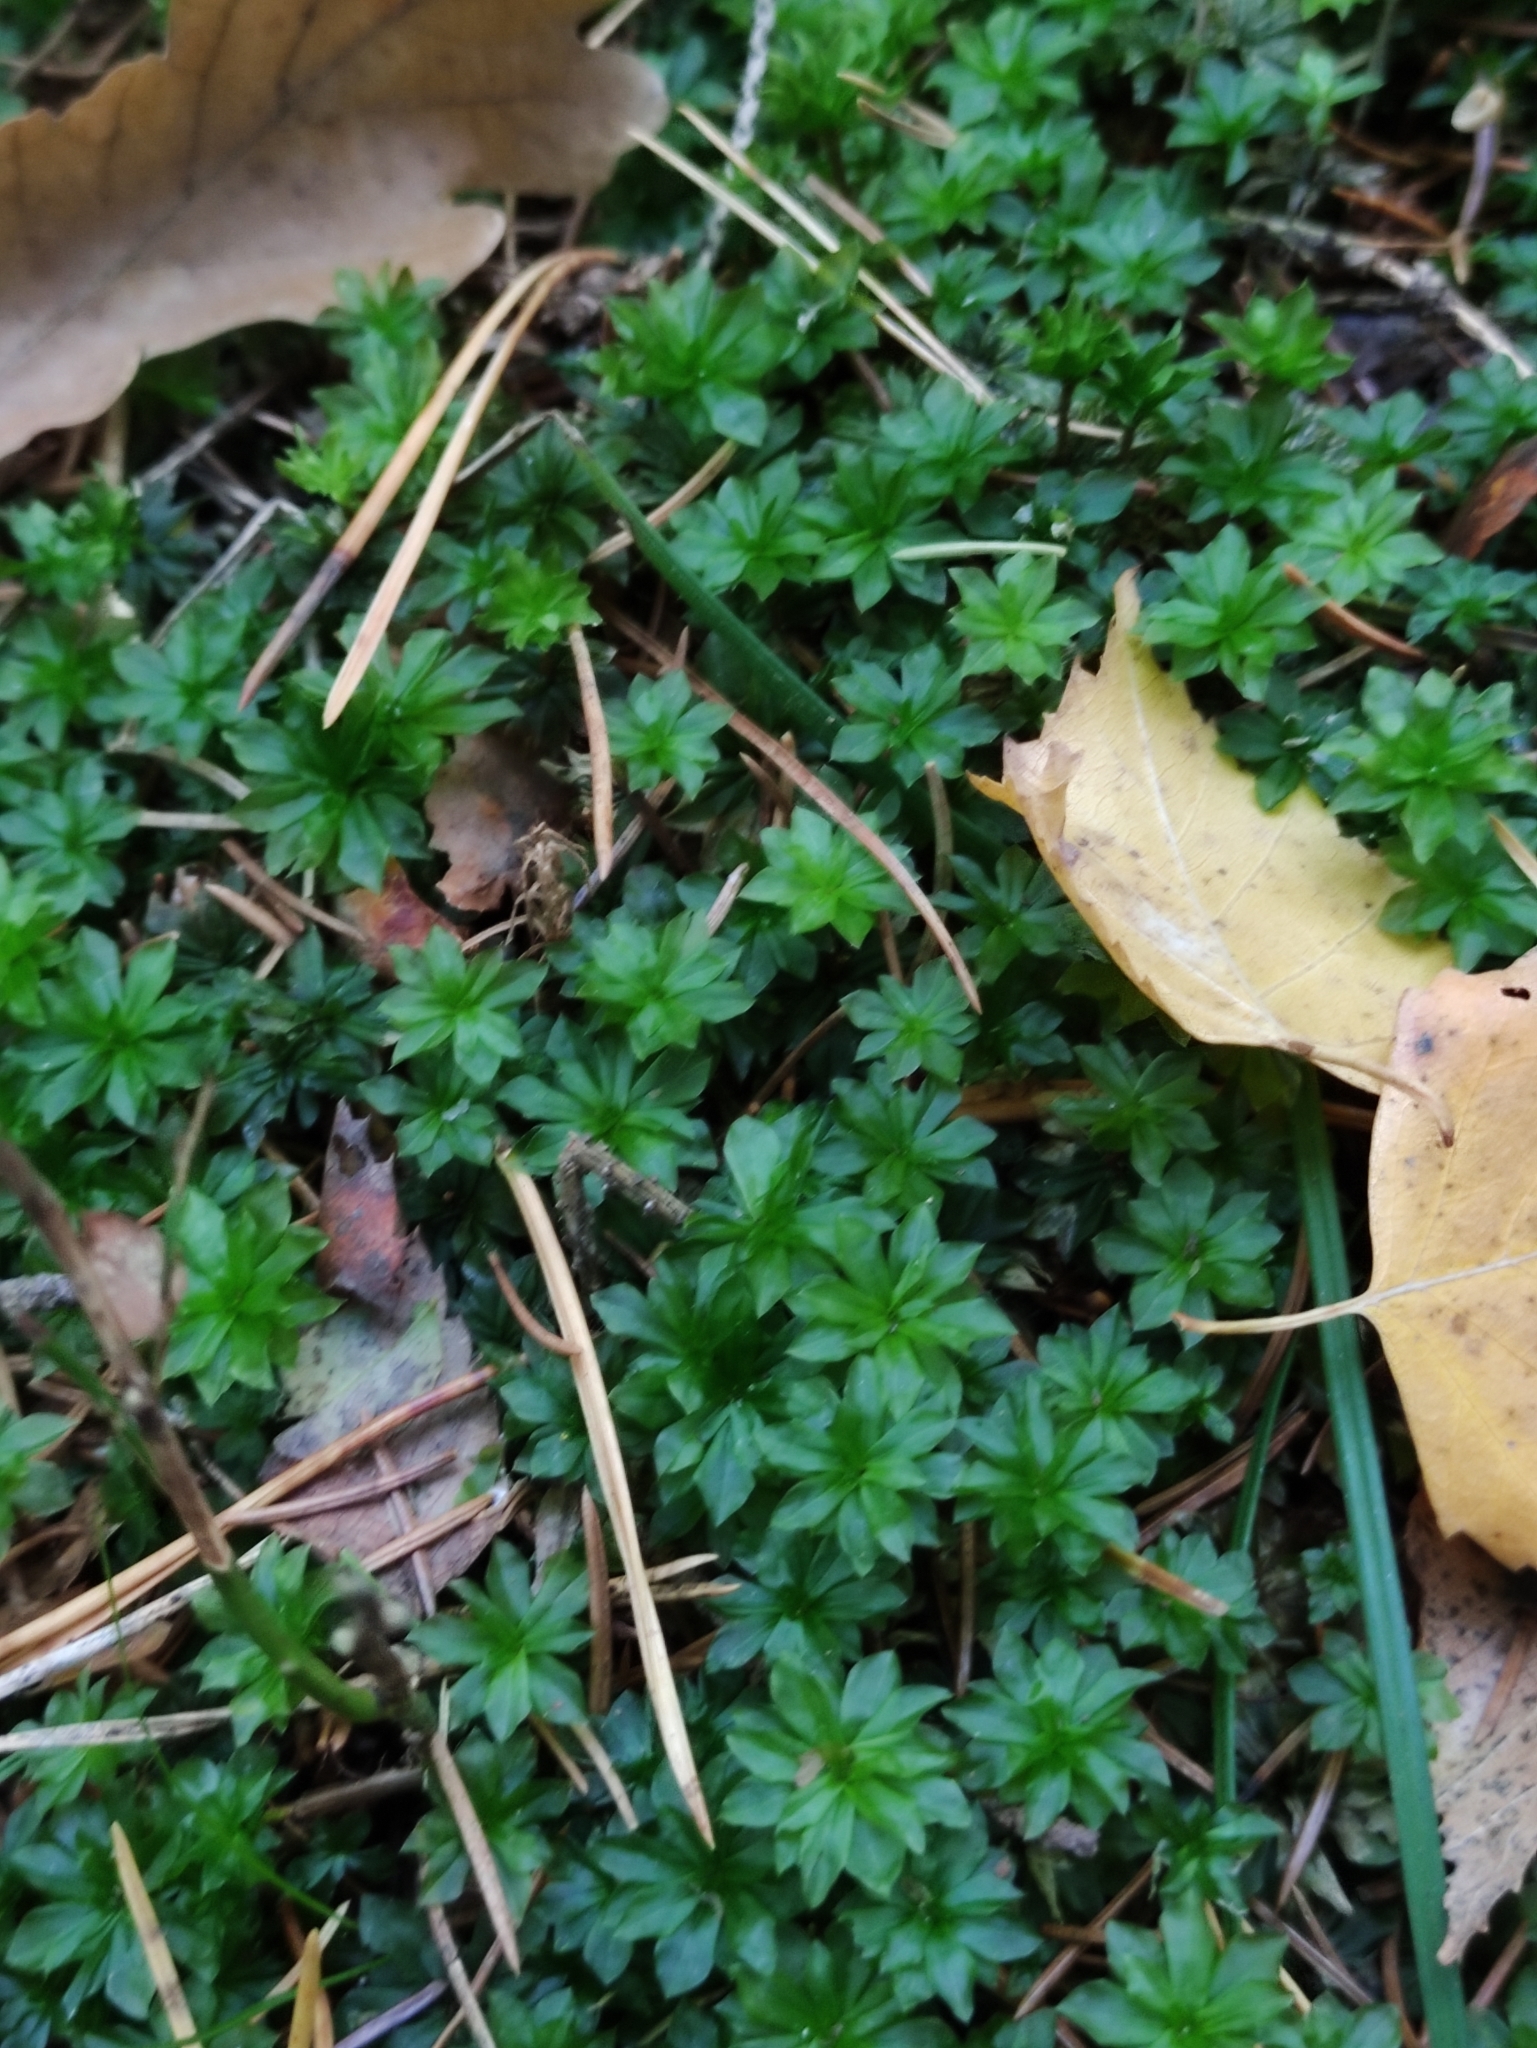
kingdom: Plantae
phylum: Bryophyta
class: Bryopsida
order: Bryales
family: Bryaceae
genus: Rhodobryum
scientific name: Rhodobryum roseum
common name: Rose-moss
